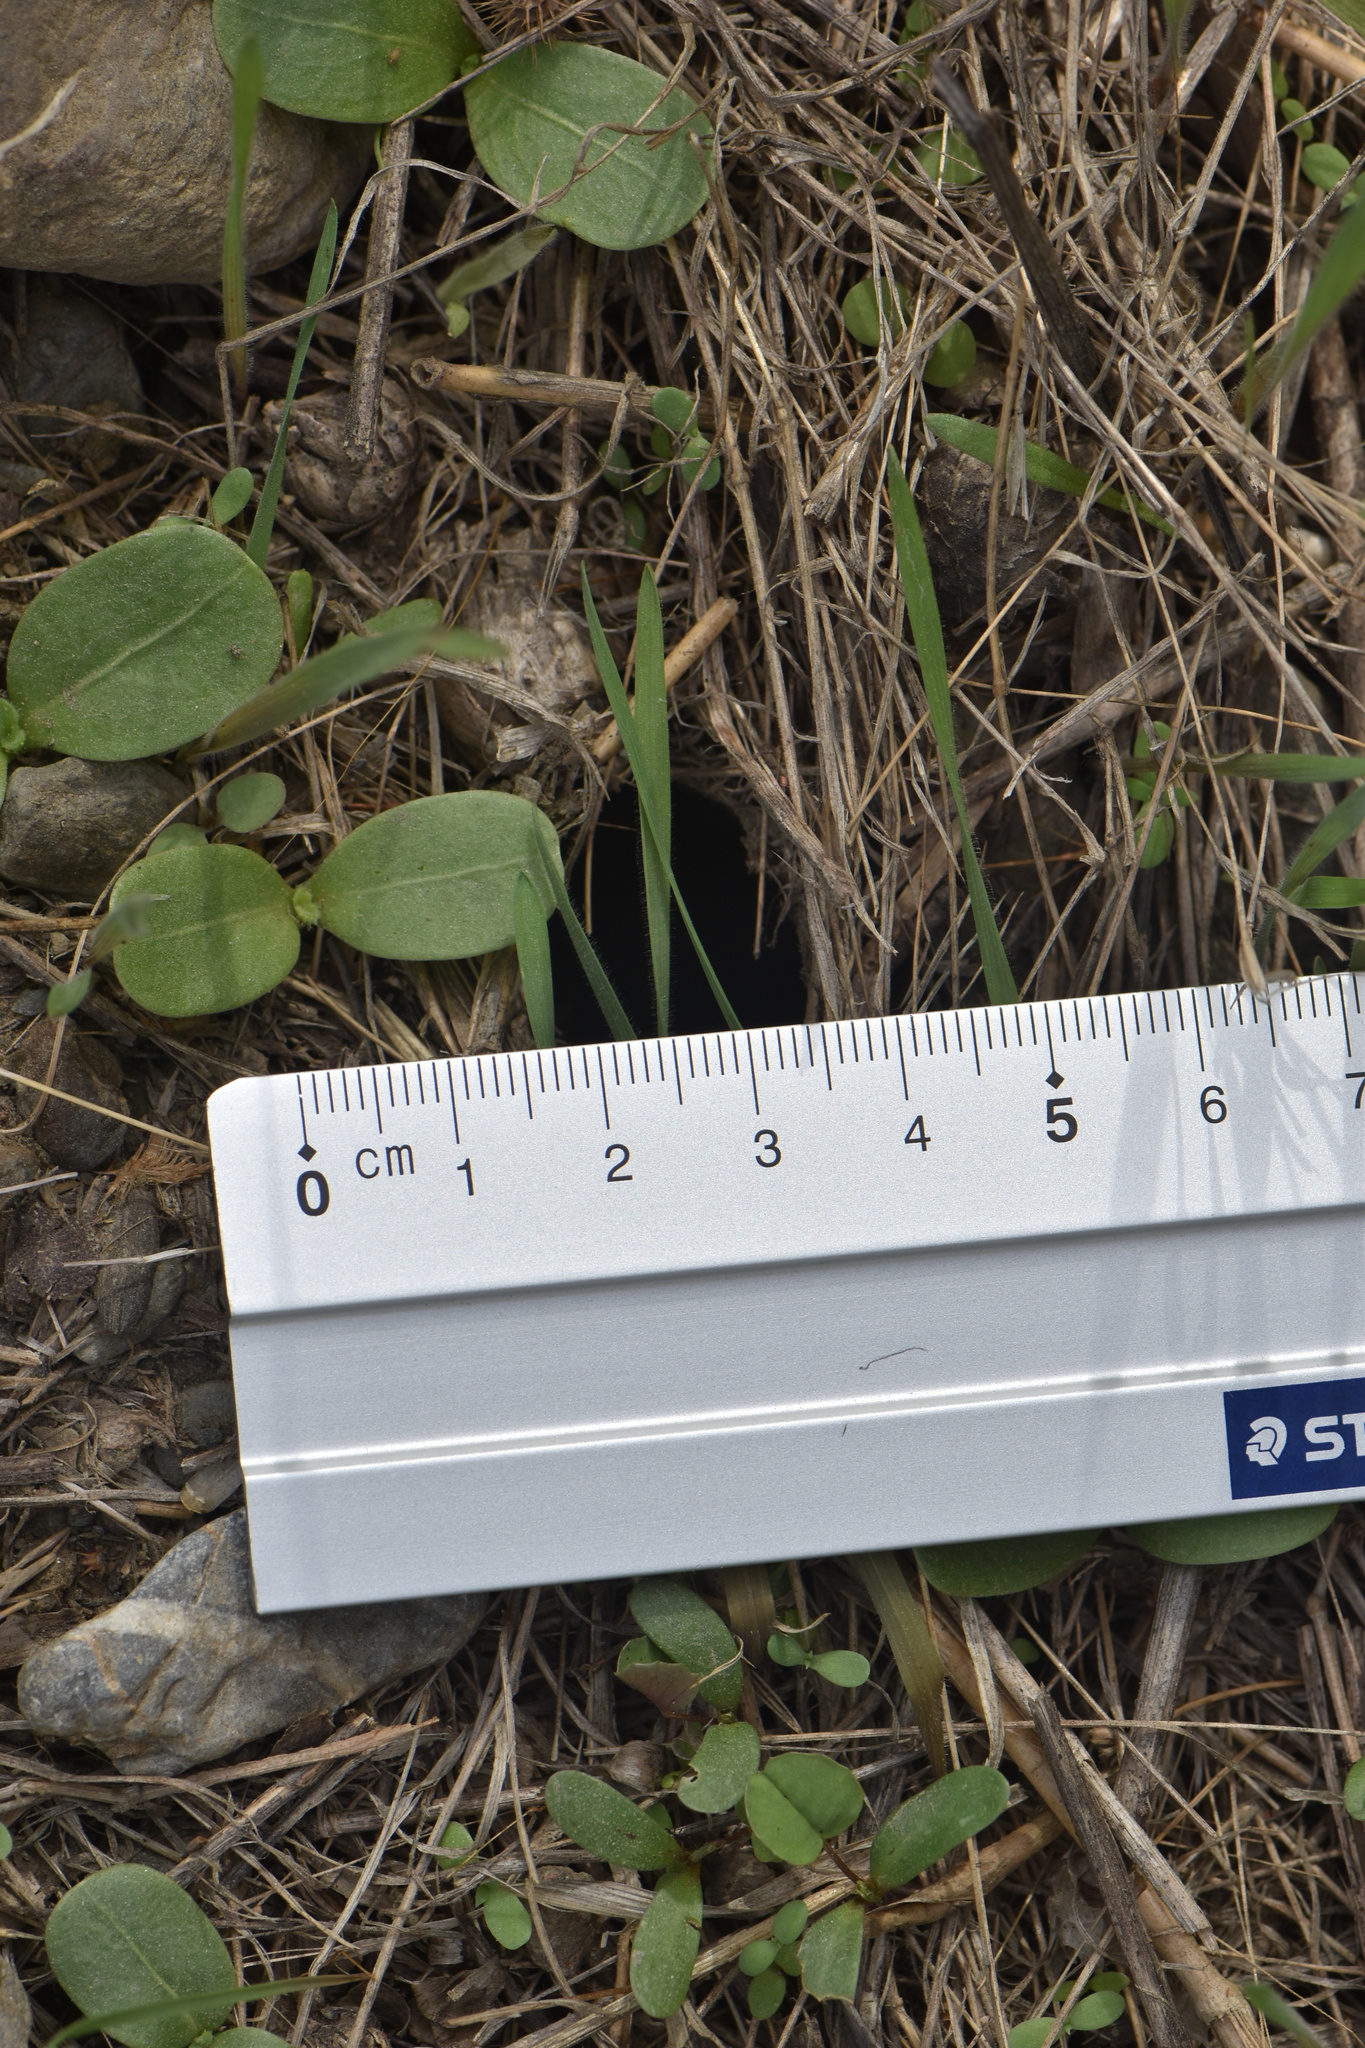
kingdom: Animalia
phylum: Arthropoda
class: Arachnida
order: Araneae
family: Lycosidae
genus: Lycosa
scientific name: Lycosa hispanica
